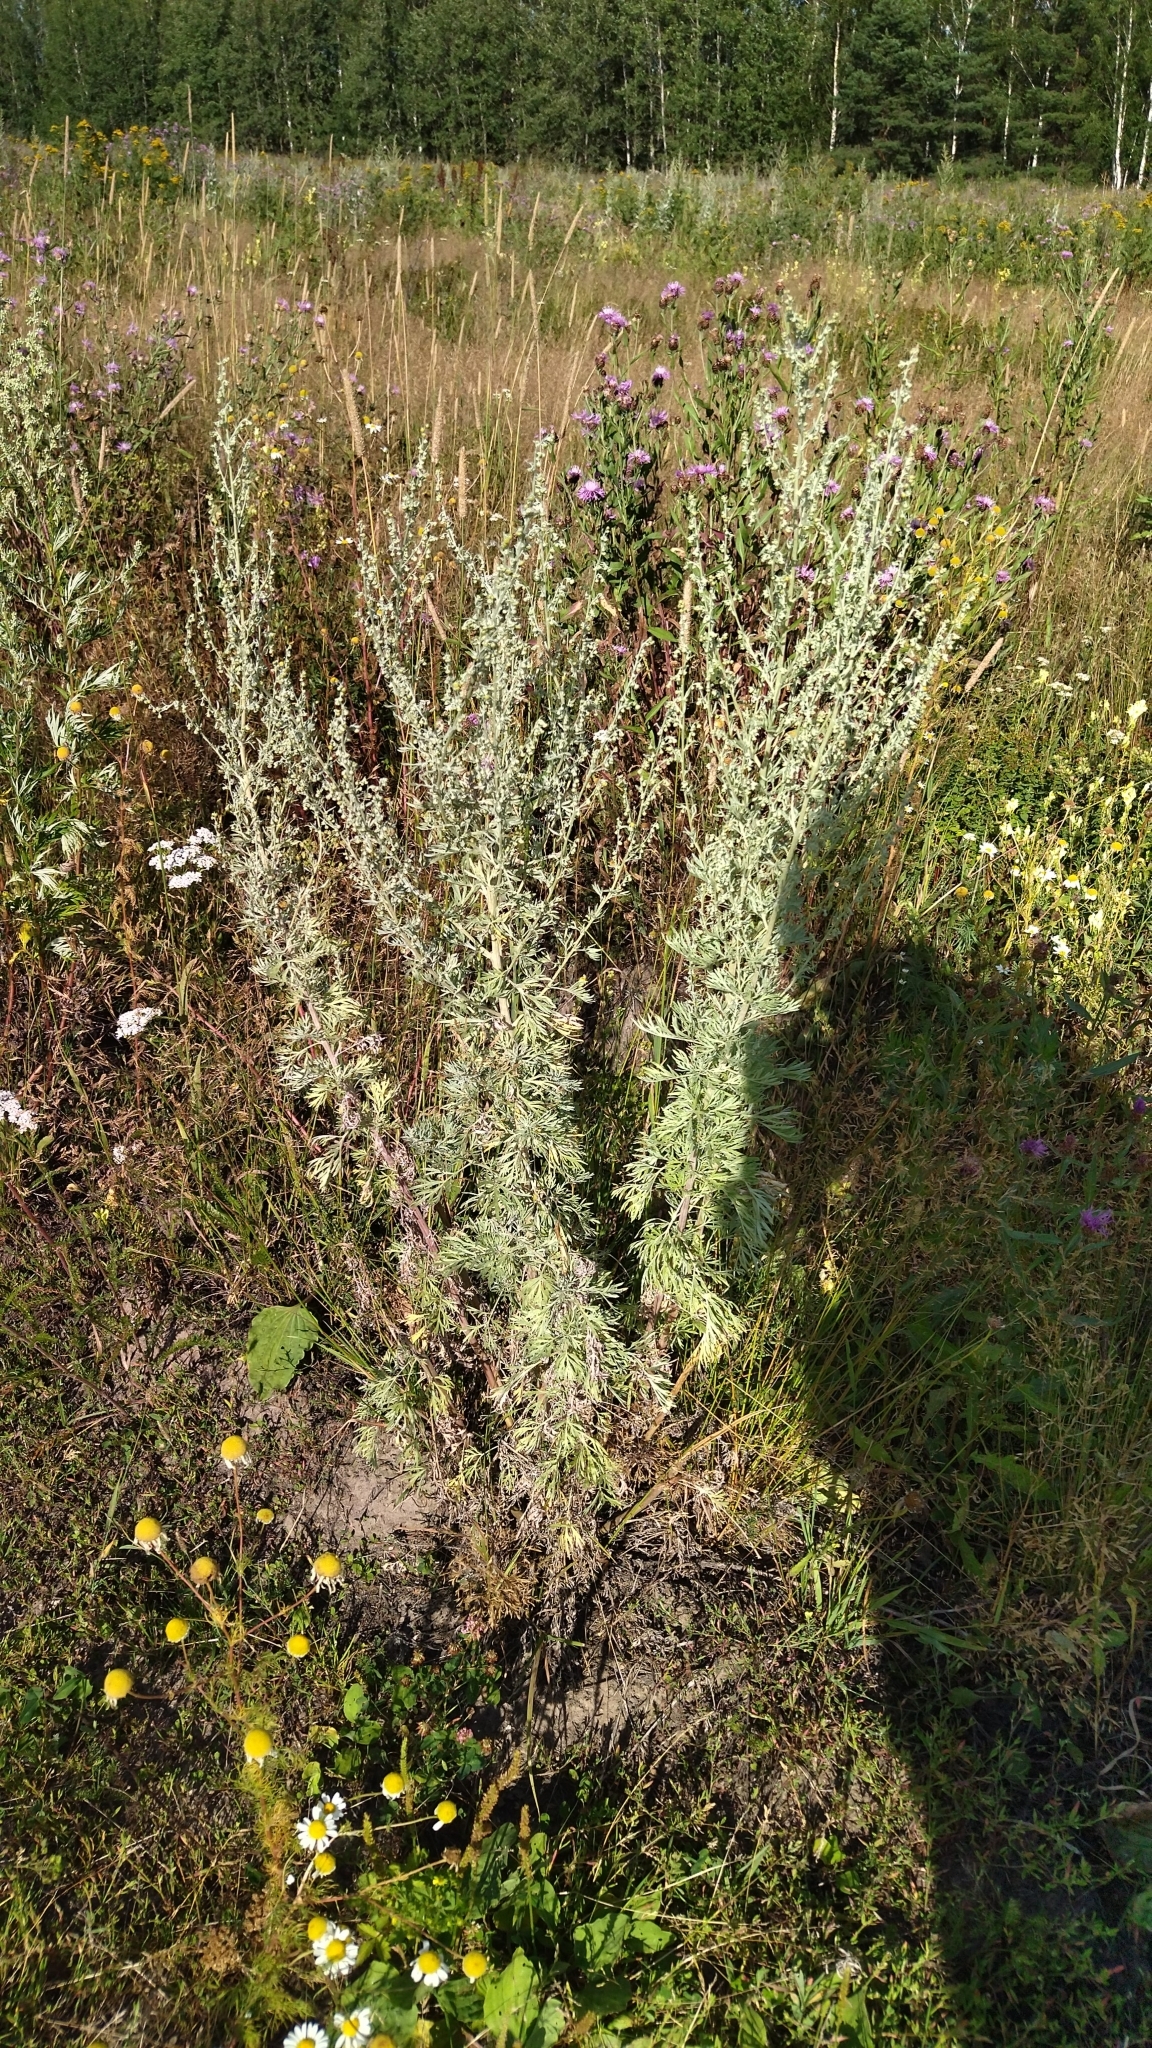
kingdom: Plantae
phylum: Tracheophyta
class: Magnoliopsida
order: Asterales
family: Asteraceae
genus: Artemisia
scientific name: Artemisia absinthium
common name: Wormwood
